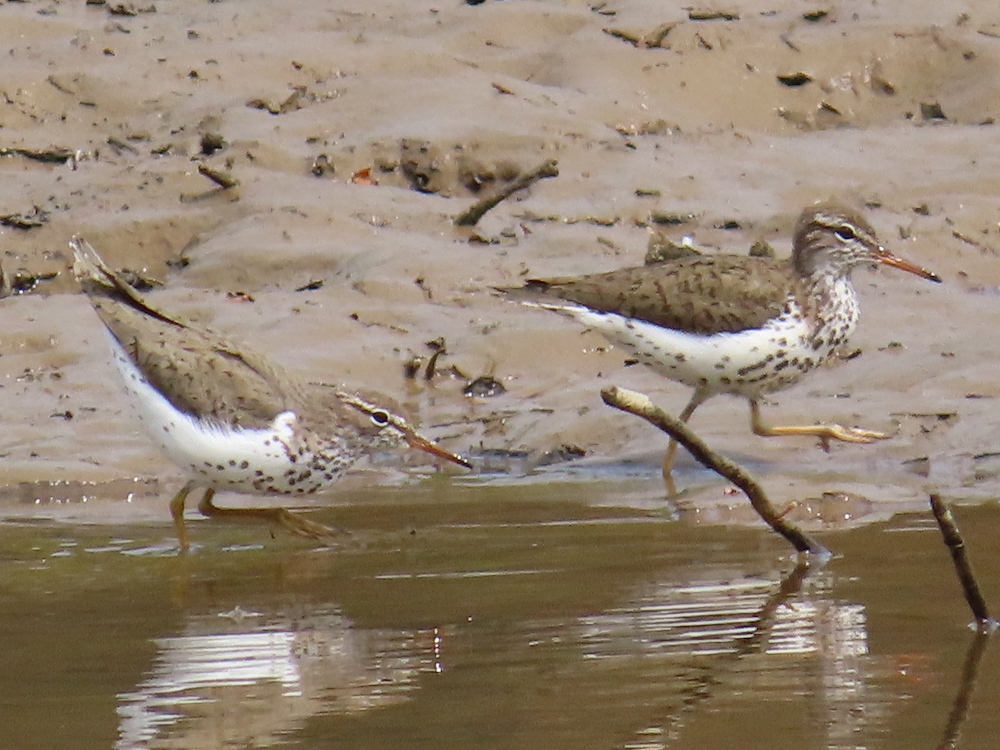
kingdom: Animalia
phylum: Chordata
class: Aves
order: Charadriiformes
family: Scolopacidae
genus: Actitis
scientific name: Actitis macularius
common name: Spotted sandpiper
